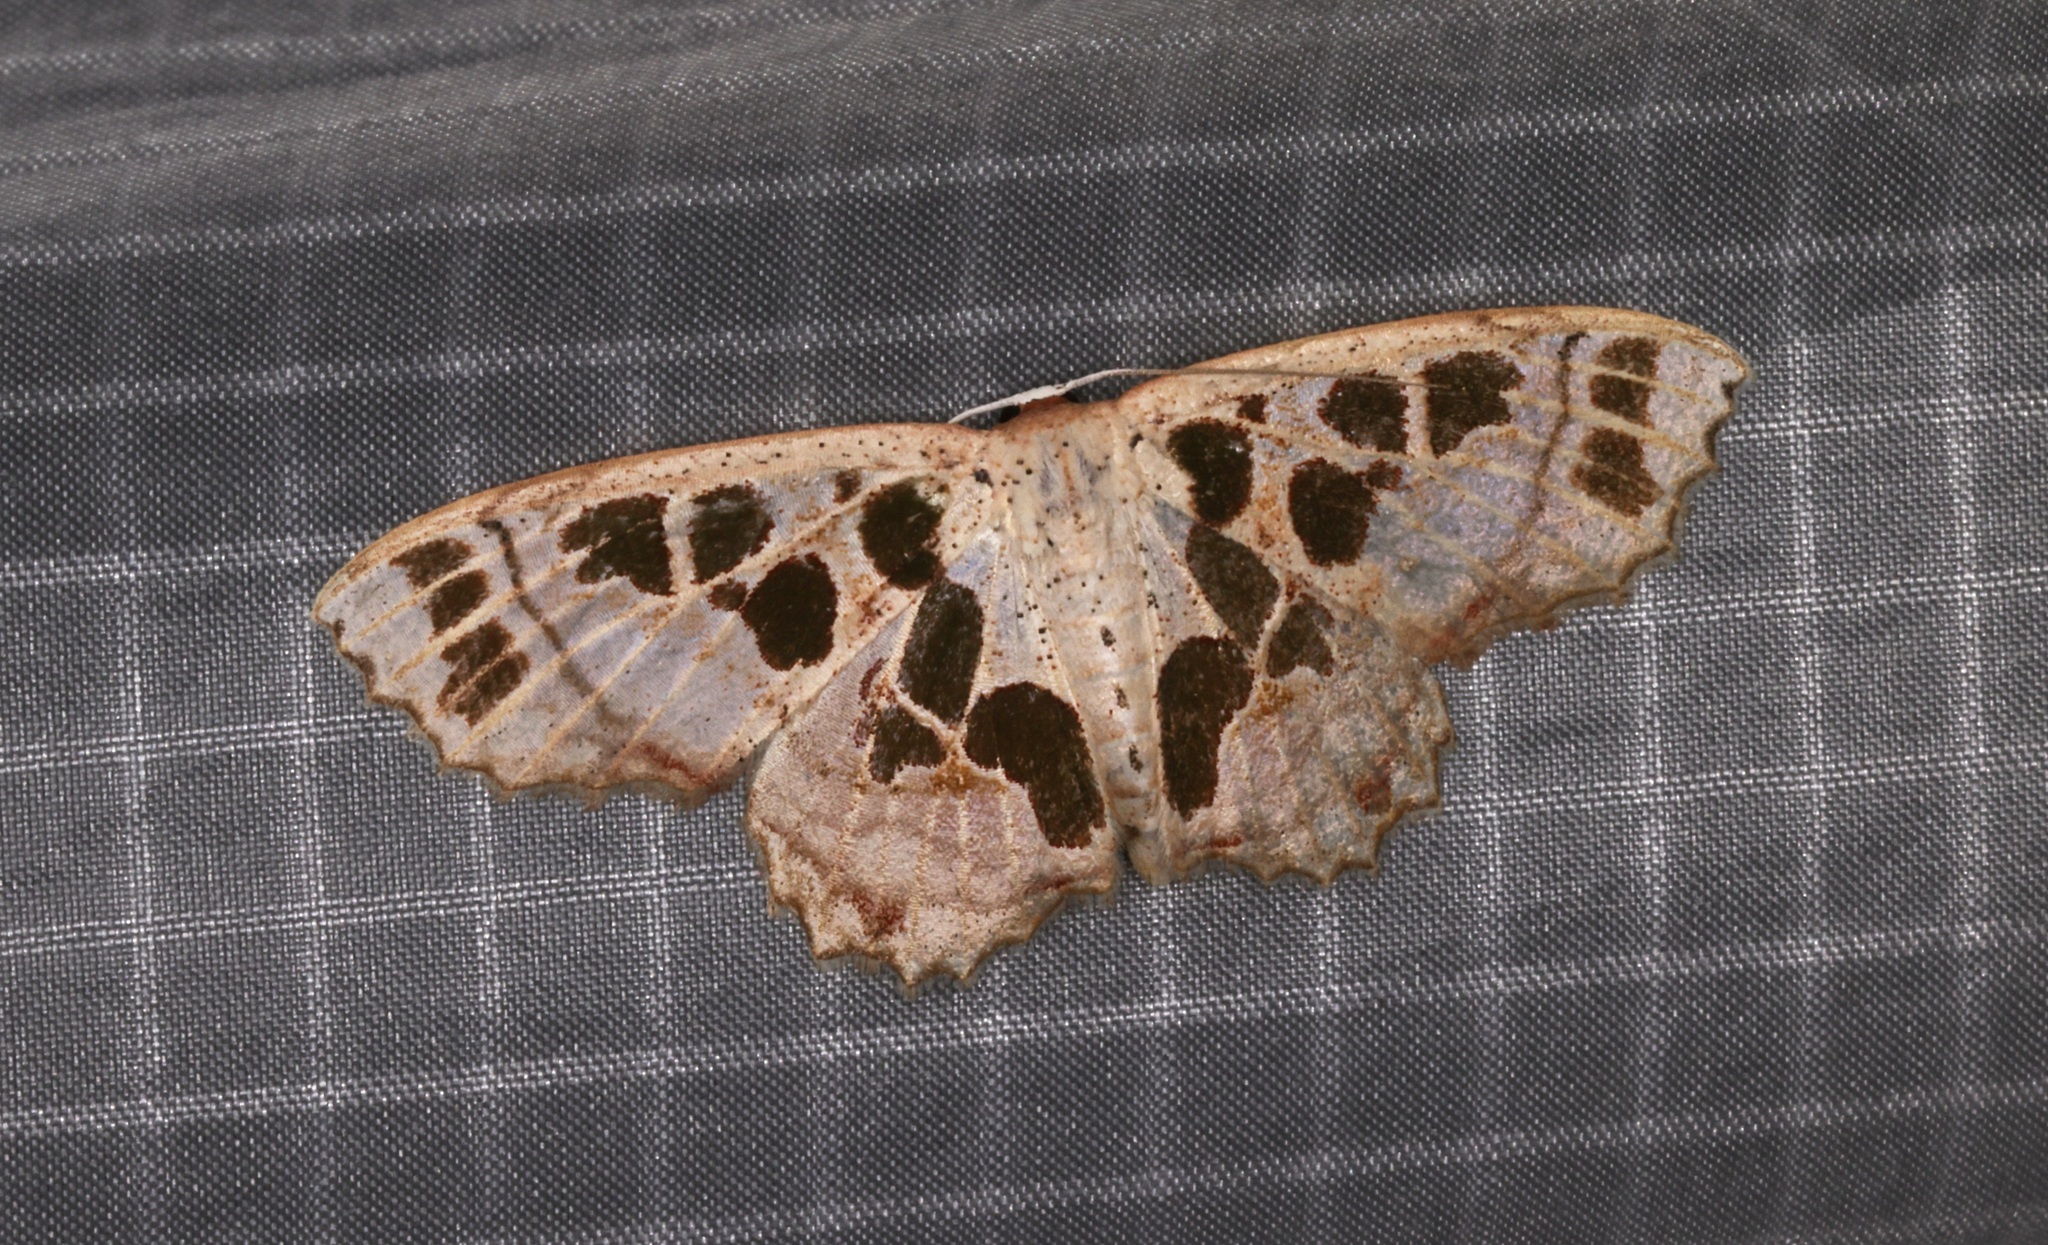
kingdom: Animalia
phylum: Arthropoda
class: Insecta
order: Lepidoptera
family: Geometridae
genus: Scopula
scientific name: Scopula divisaria
